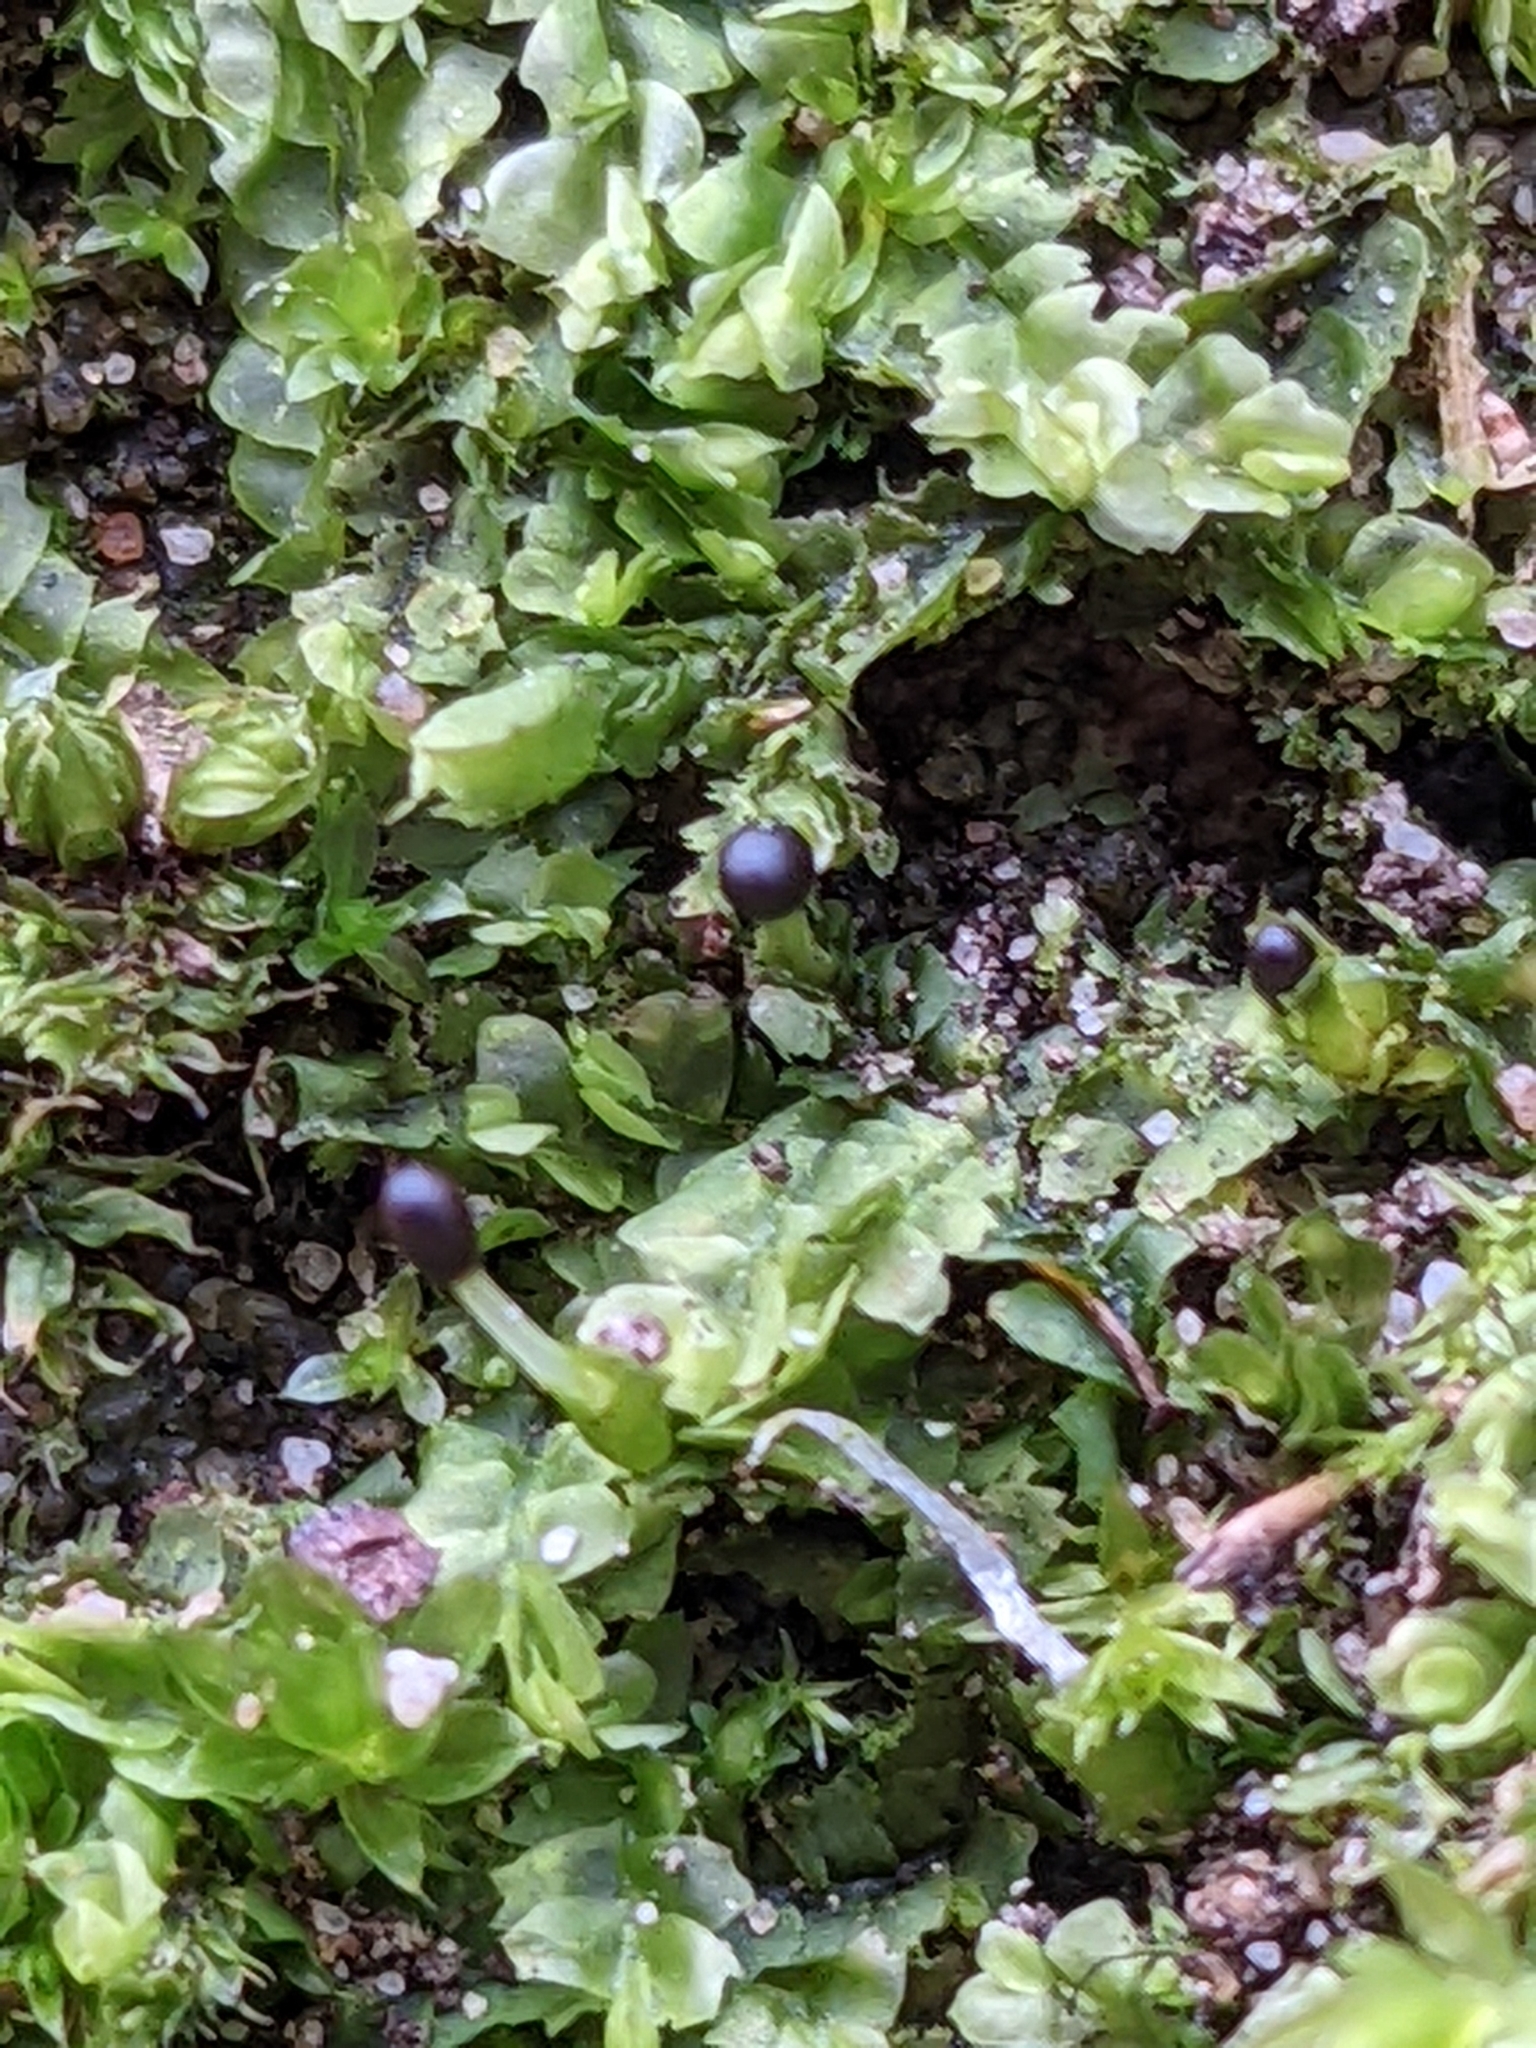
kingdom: Plantae
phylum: Marchantiophyta
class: Jungermanniopsida
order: Jungermanniales
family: Lophocoleaceae
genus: Lophocolea
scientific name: Lophocolea heterophylla
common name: Variable-leaved crestwort
